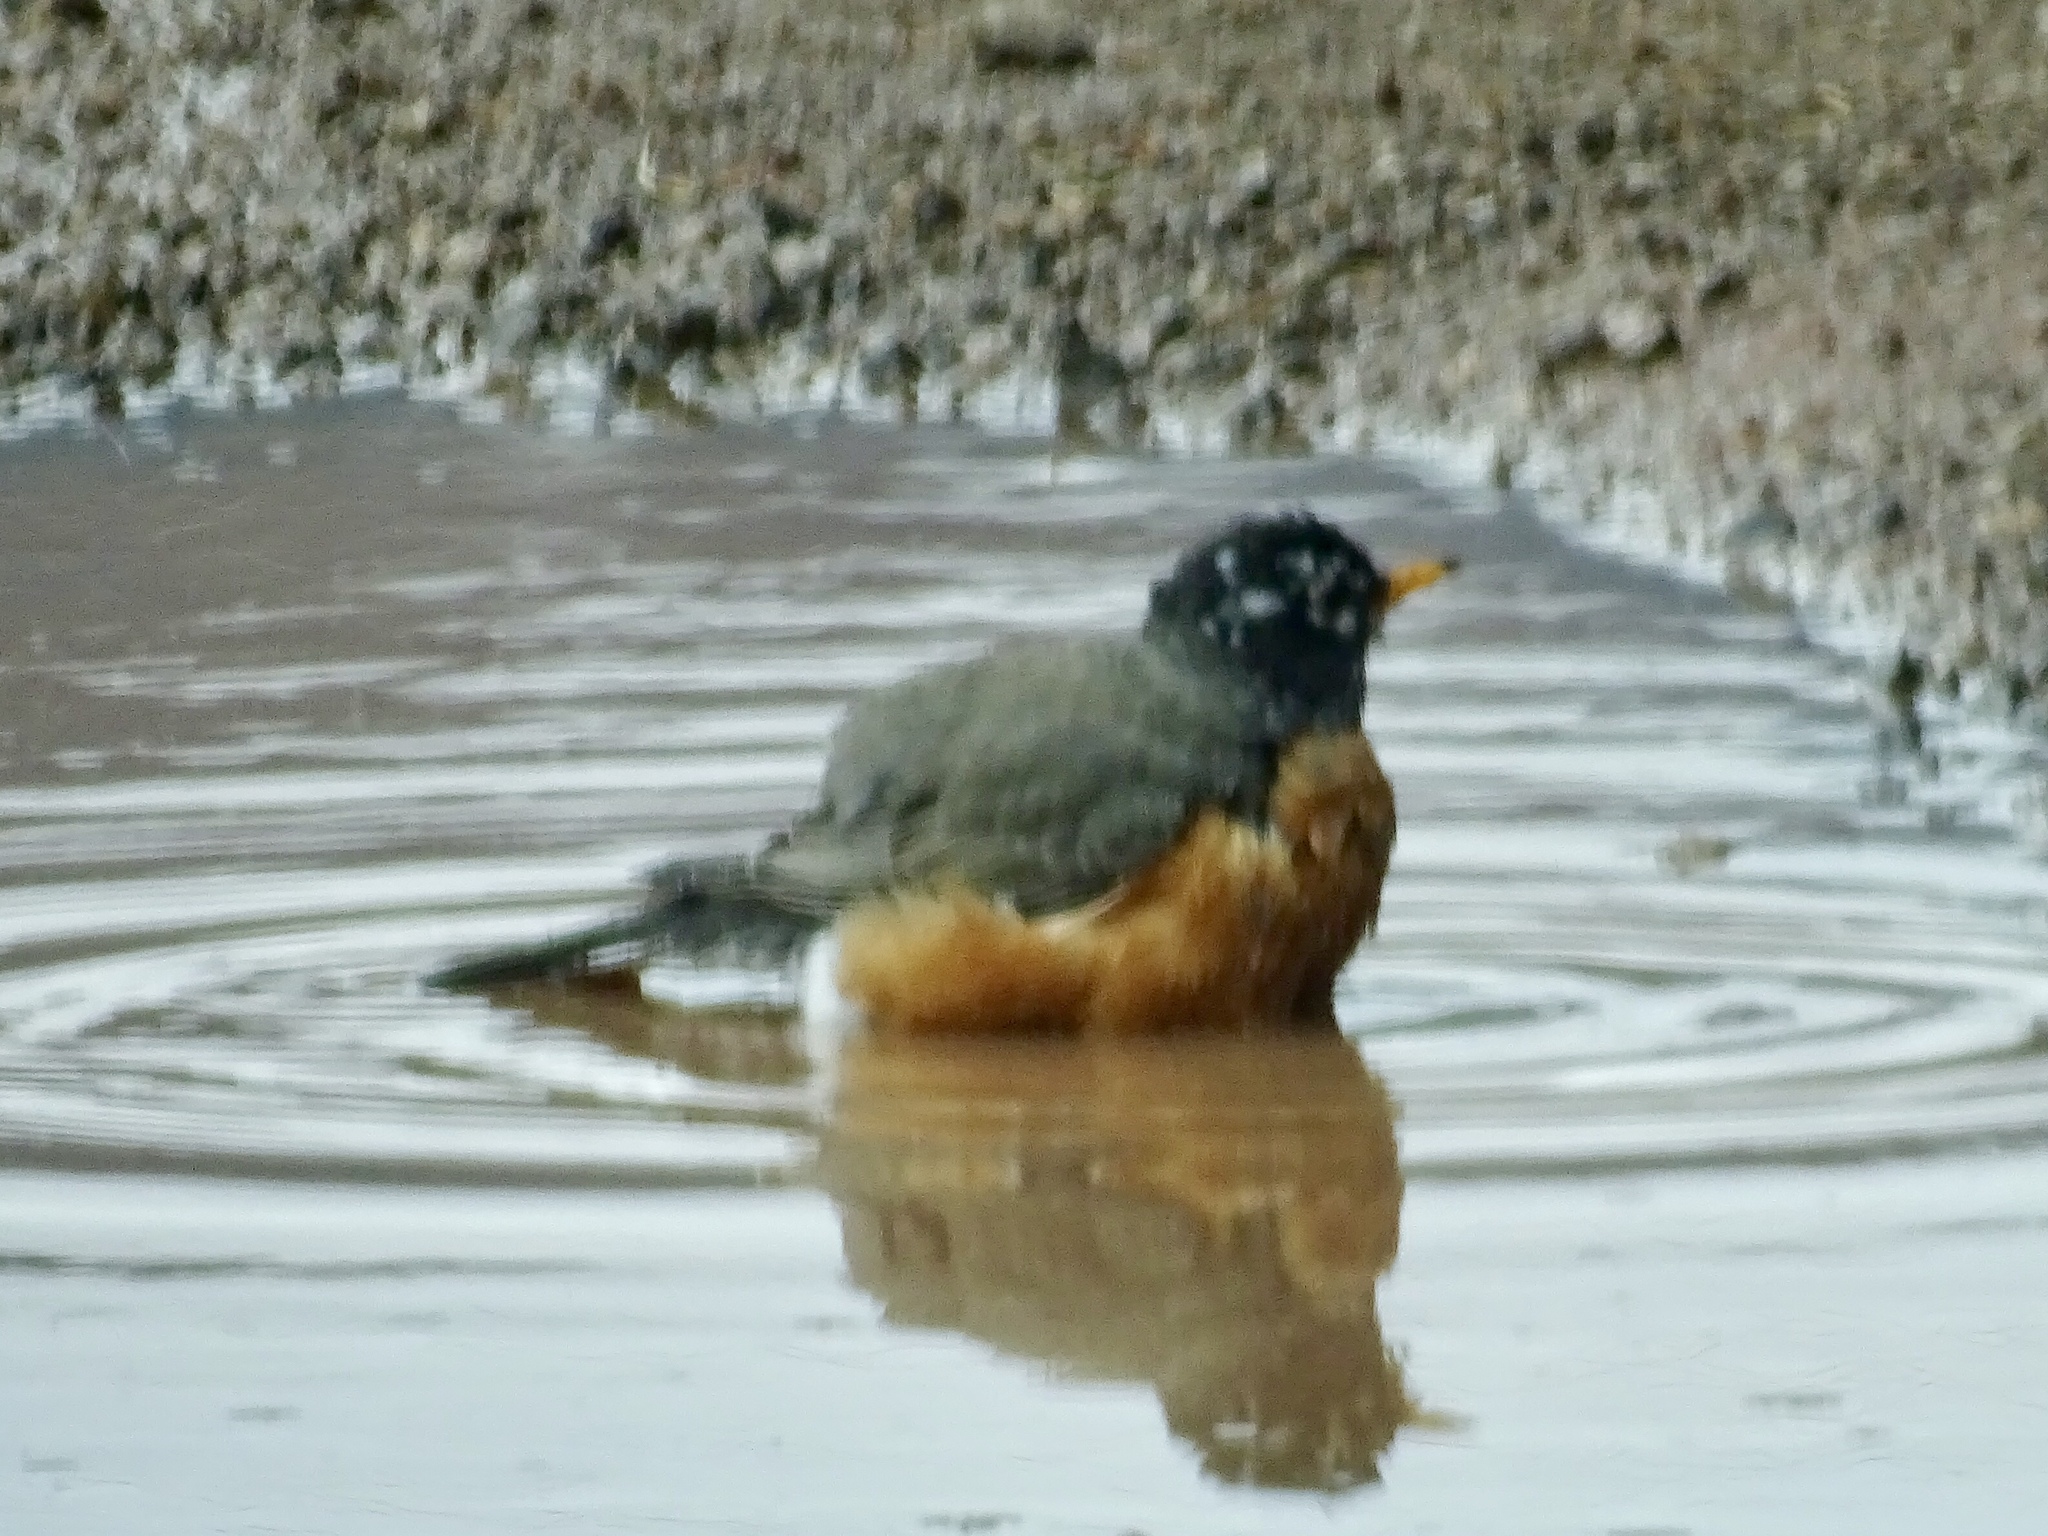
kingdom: Animalia
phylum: Chordata
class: Aves
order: Passeriformes
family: Turdidae
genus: Turdus
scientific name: Turdus migratorius
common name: American robin
